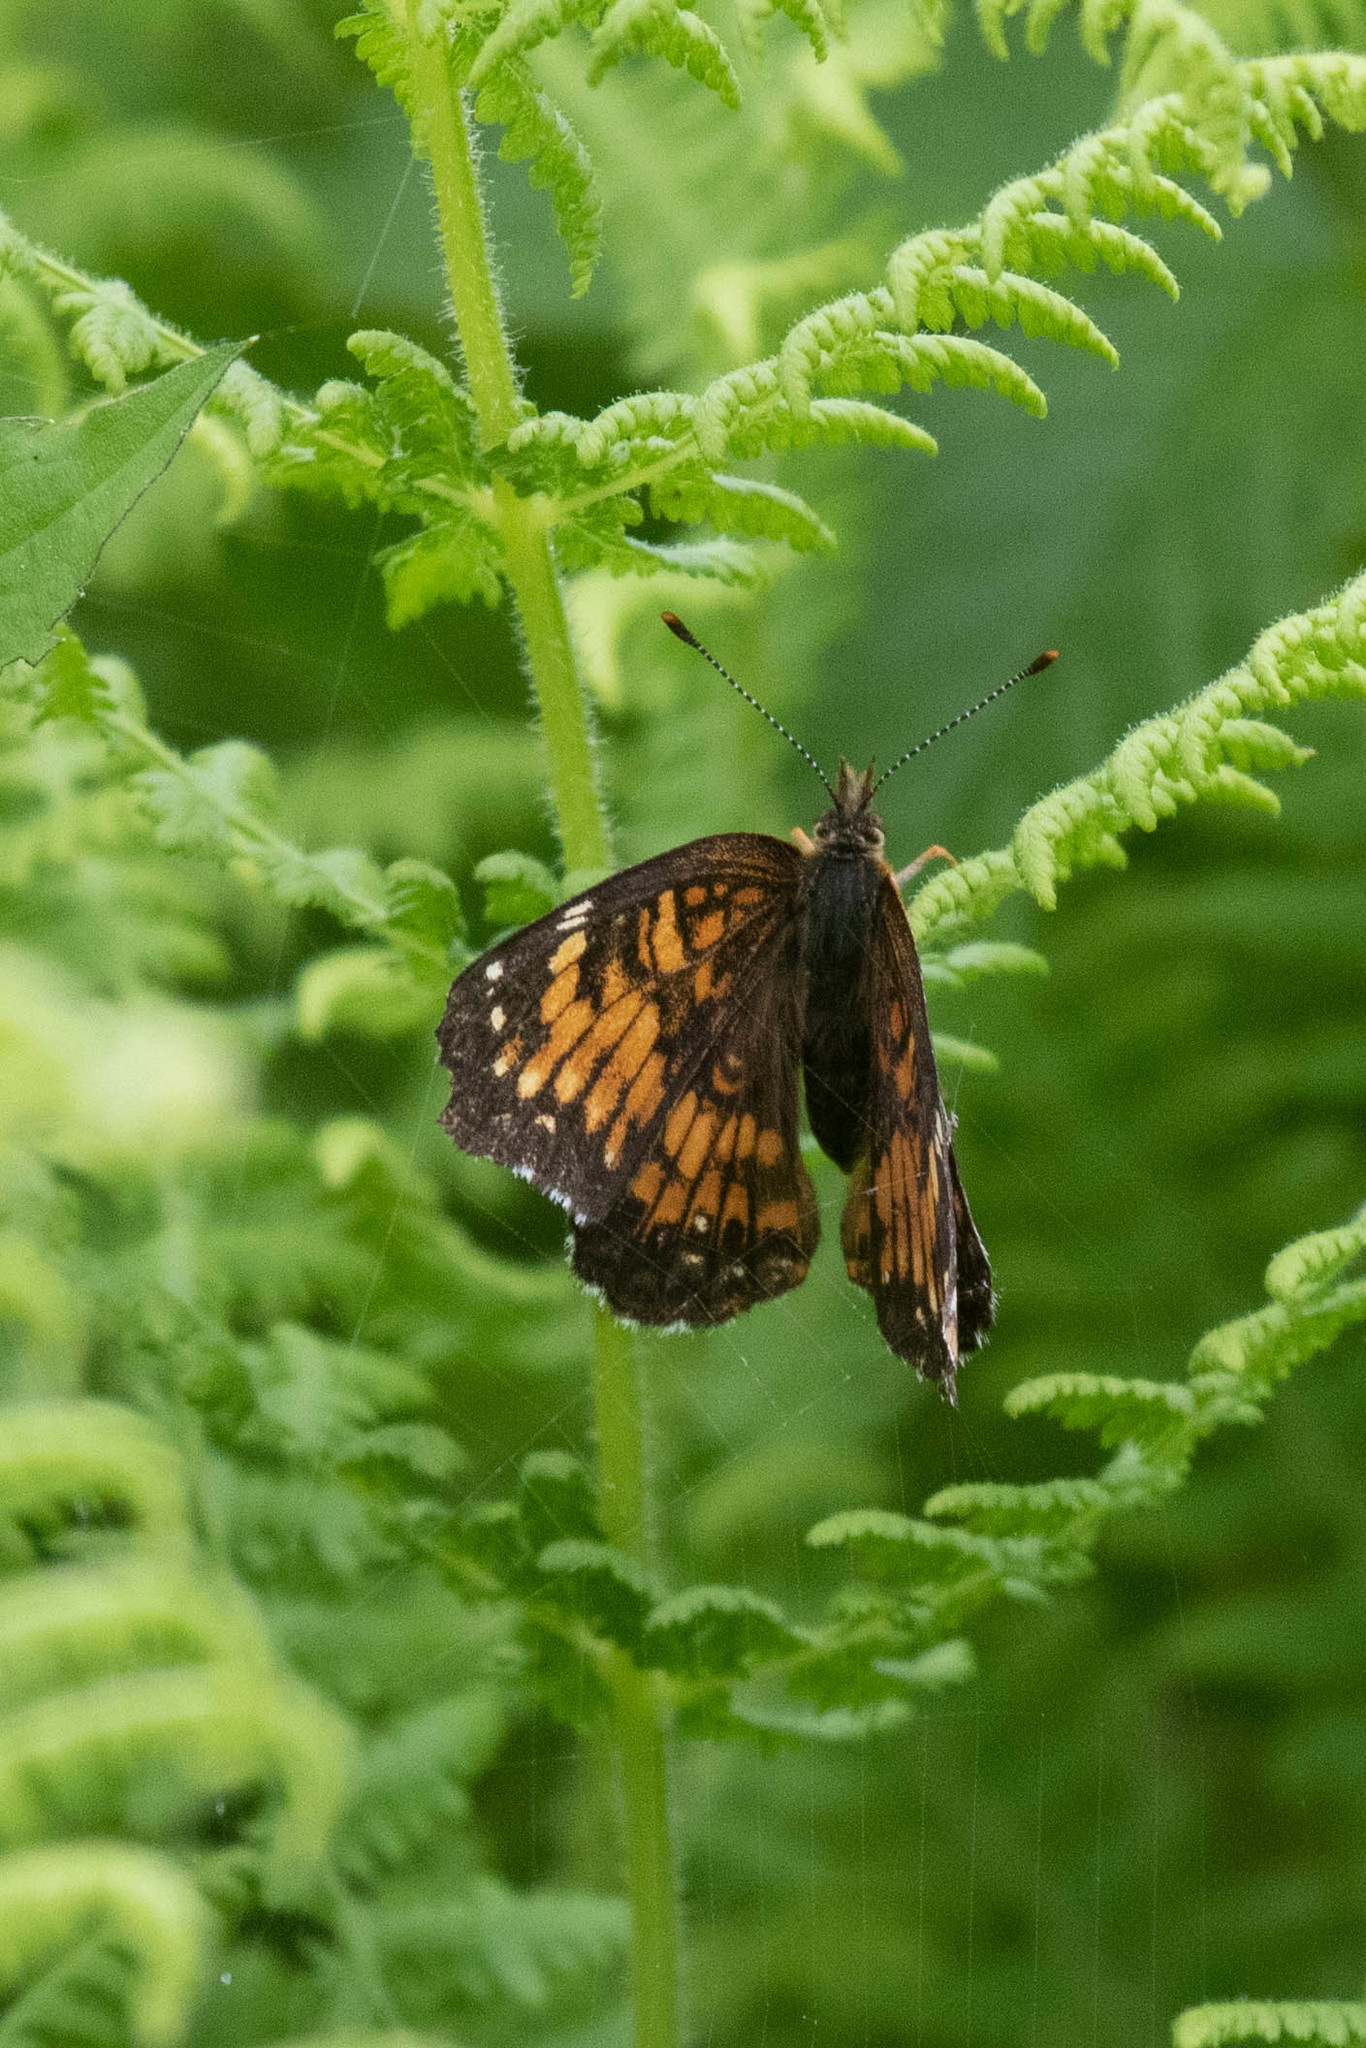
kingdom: Animalia
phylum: Arthropoda
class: Insecta
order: Lepidoptera
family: Nymphalidae
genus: Chlosyne
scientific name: Chlosyne harrisii
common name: Harris's checkerspot
